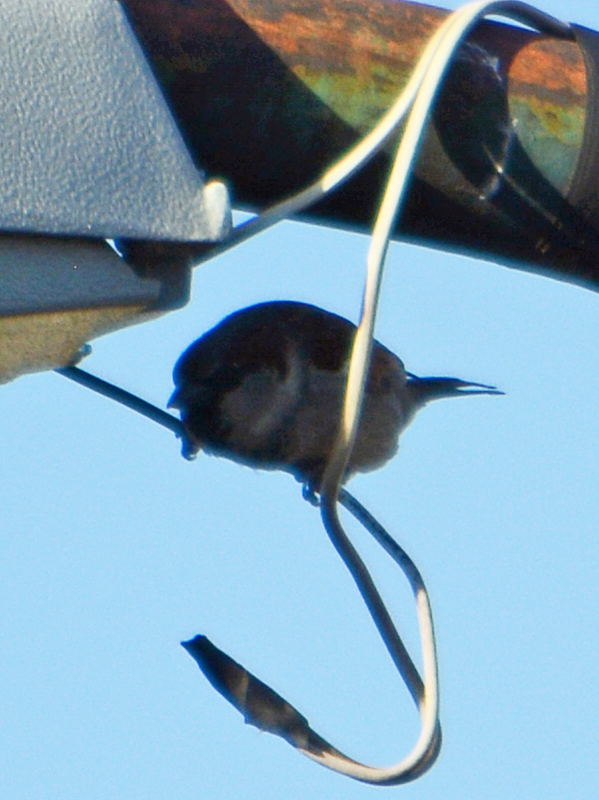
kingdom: Animalia
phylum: Chordata
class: Aves
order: Passeriformes
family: Passeridae
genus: Passer
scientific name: Passer domesticus
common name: House sparrow
